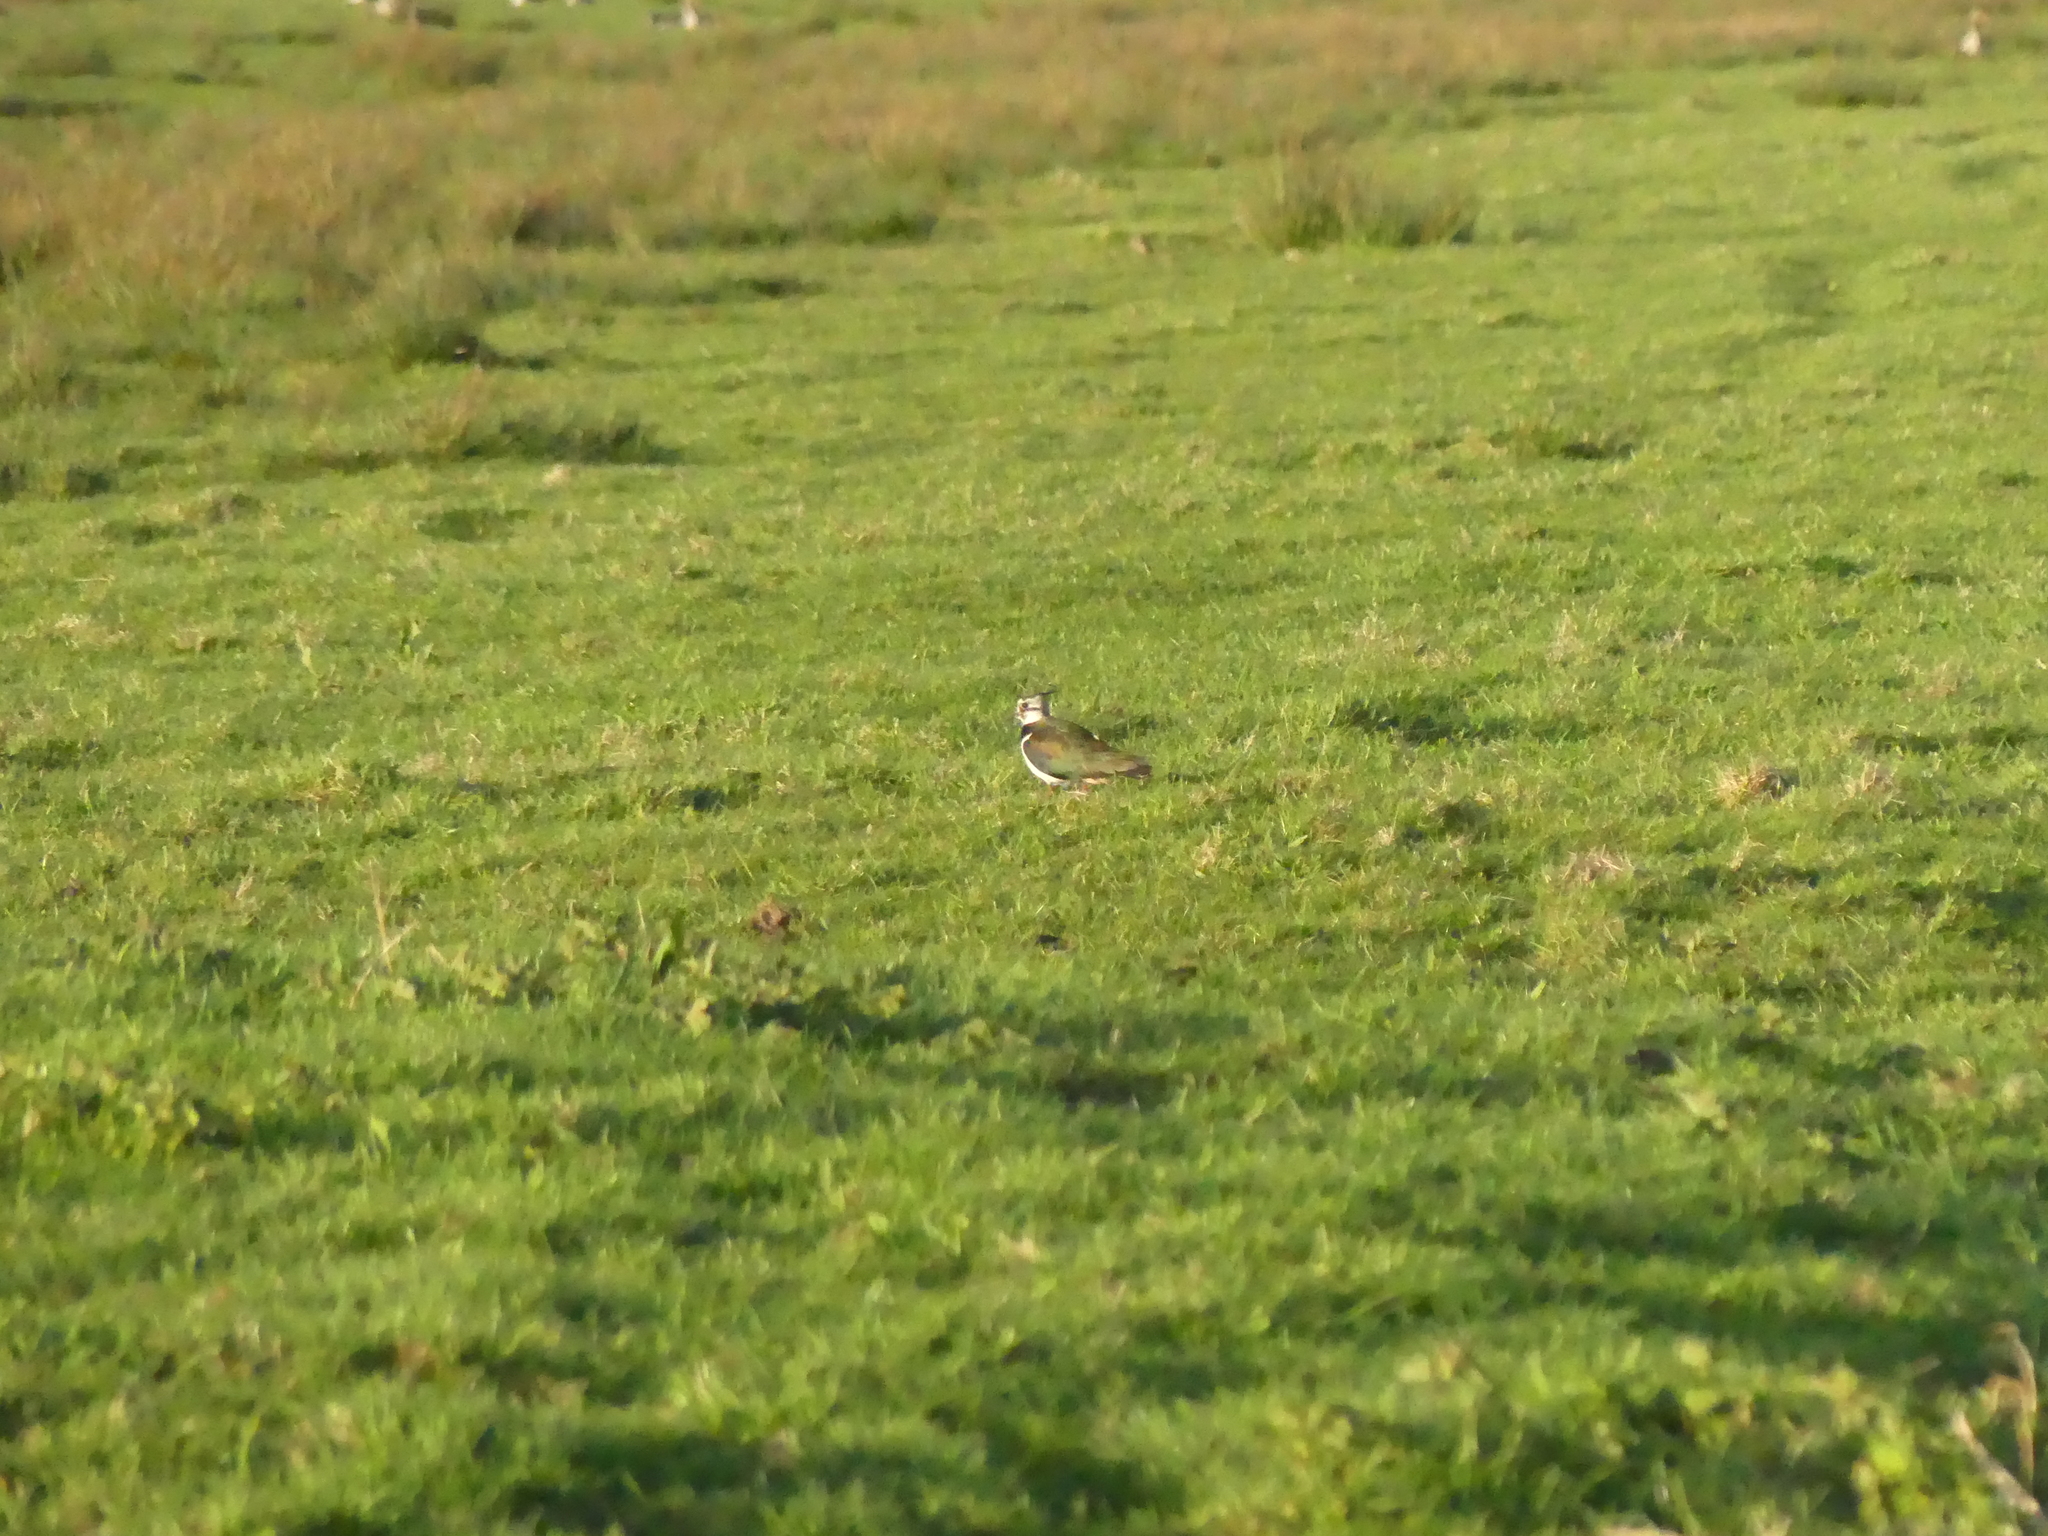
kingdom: Animalia
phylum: Chordata
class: Aves
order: Charadriiformes
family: Charadriidae
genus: Vanellus
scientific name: Vanellus vanellus
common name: Northern lapwing
